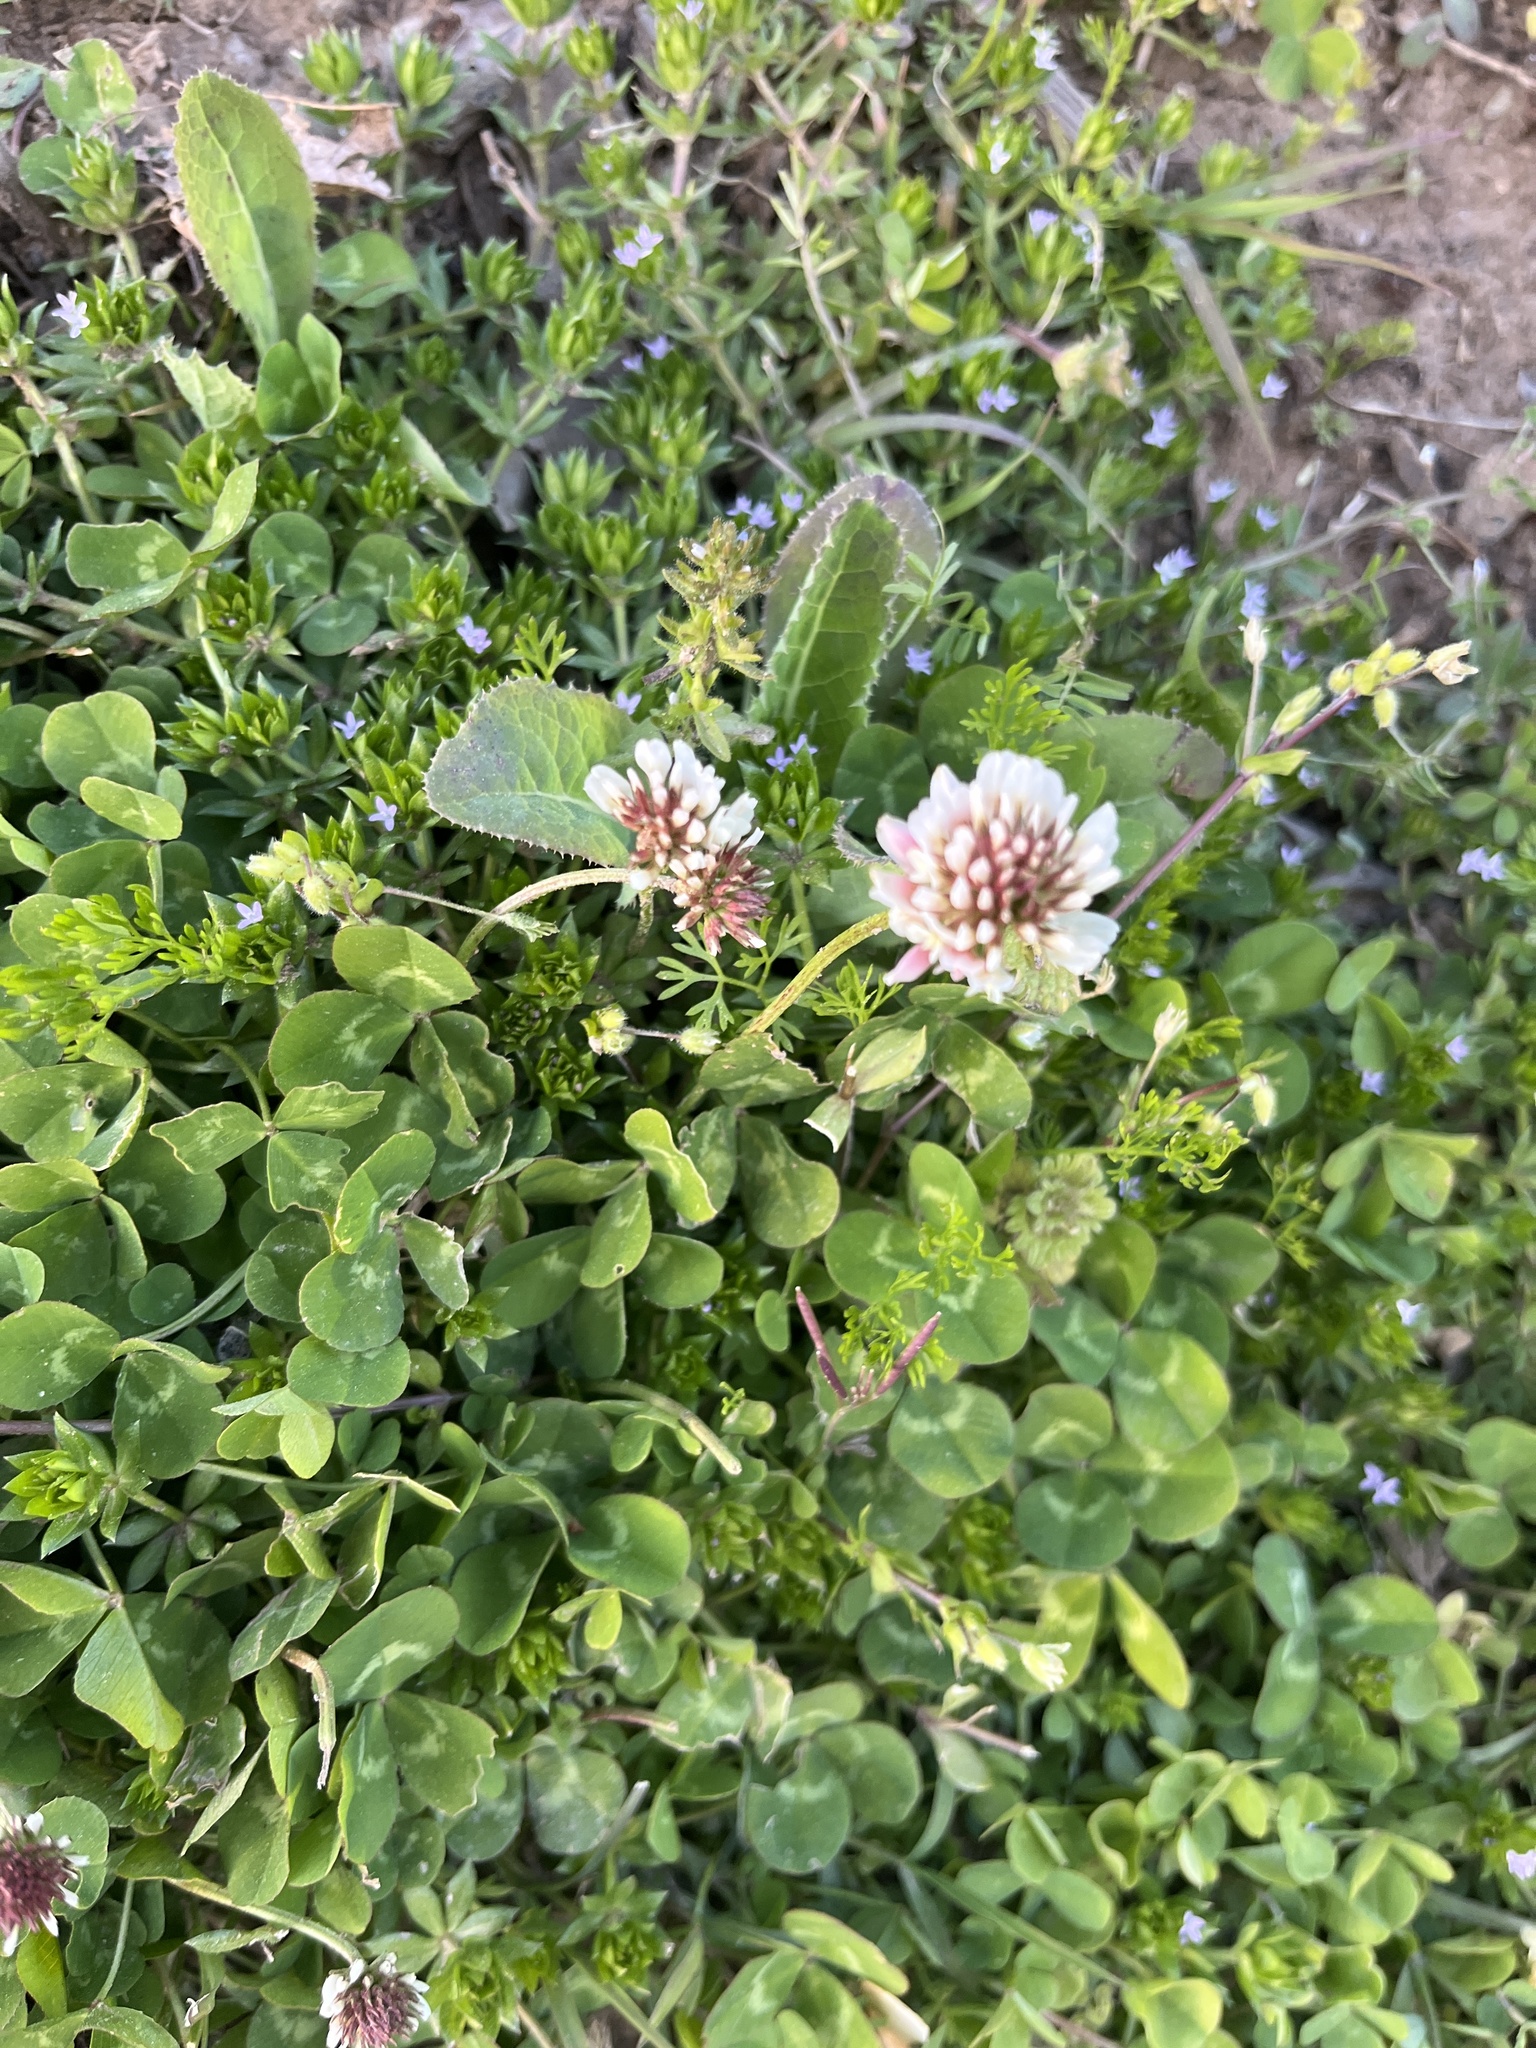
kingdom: Plantae
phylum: Tracheophyta
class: Magnoliopsida
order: Fabales
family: Fabaceae
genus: Trifolium
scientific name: Trifolium repens
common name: White clover
